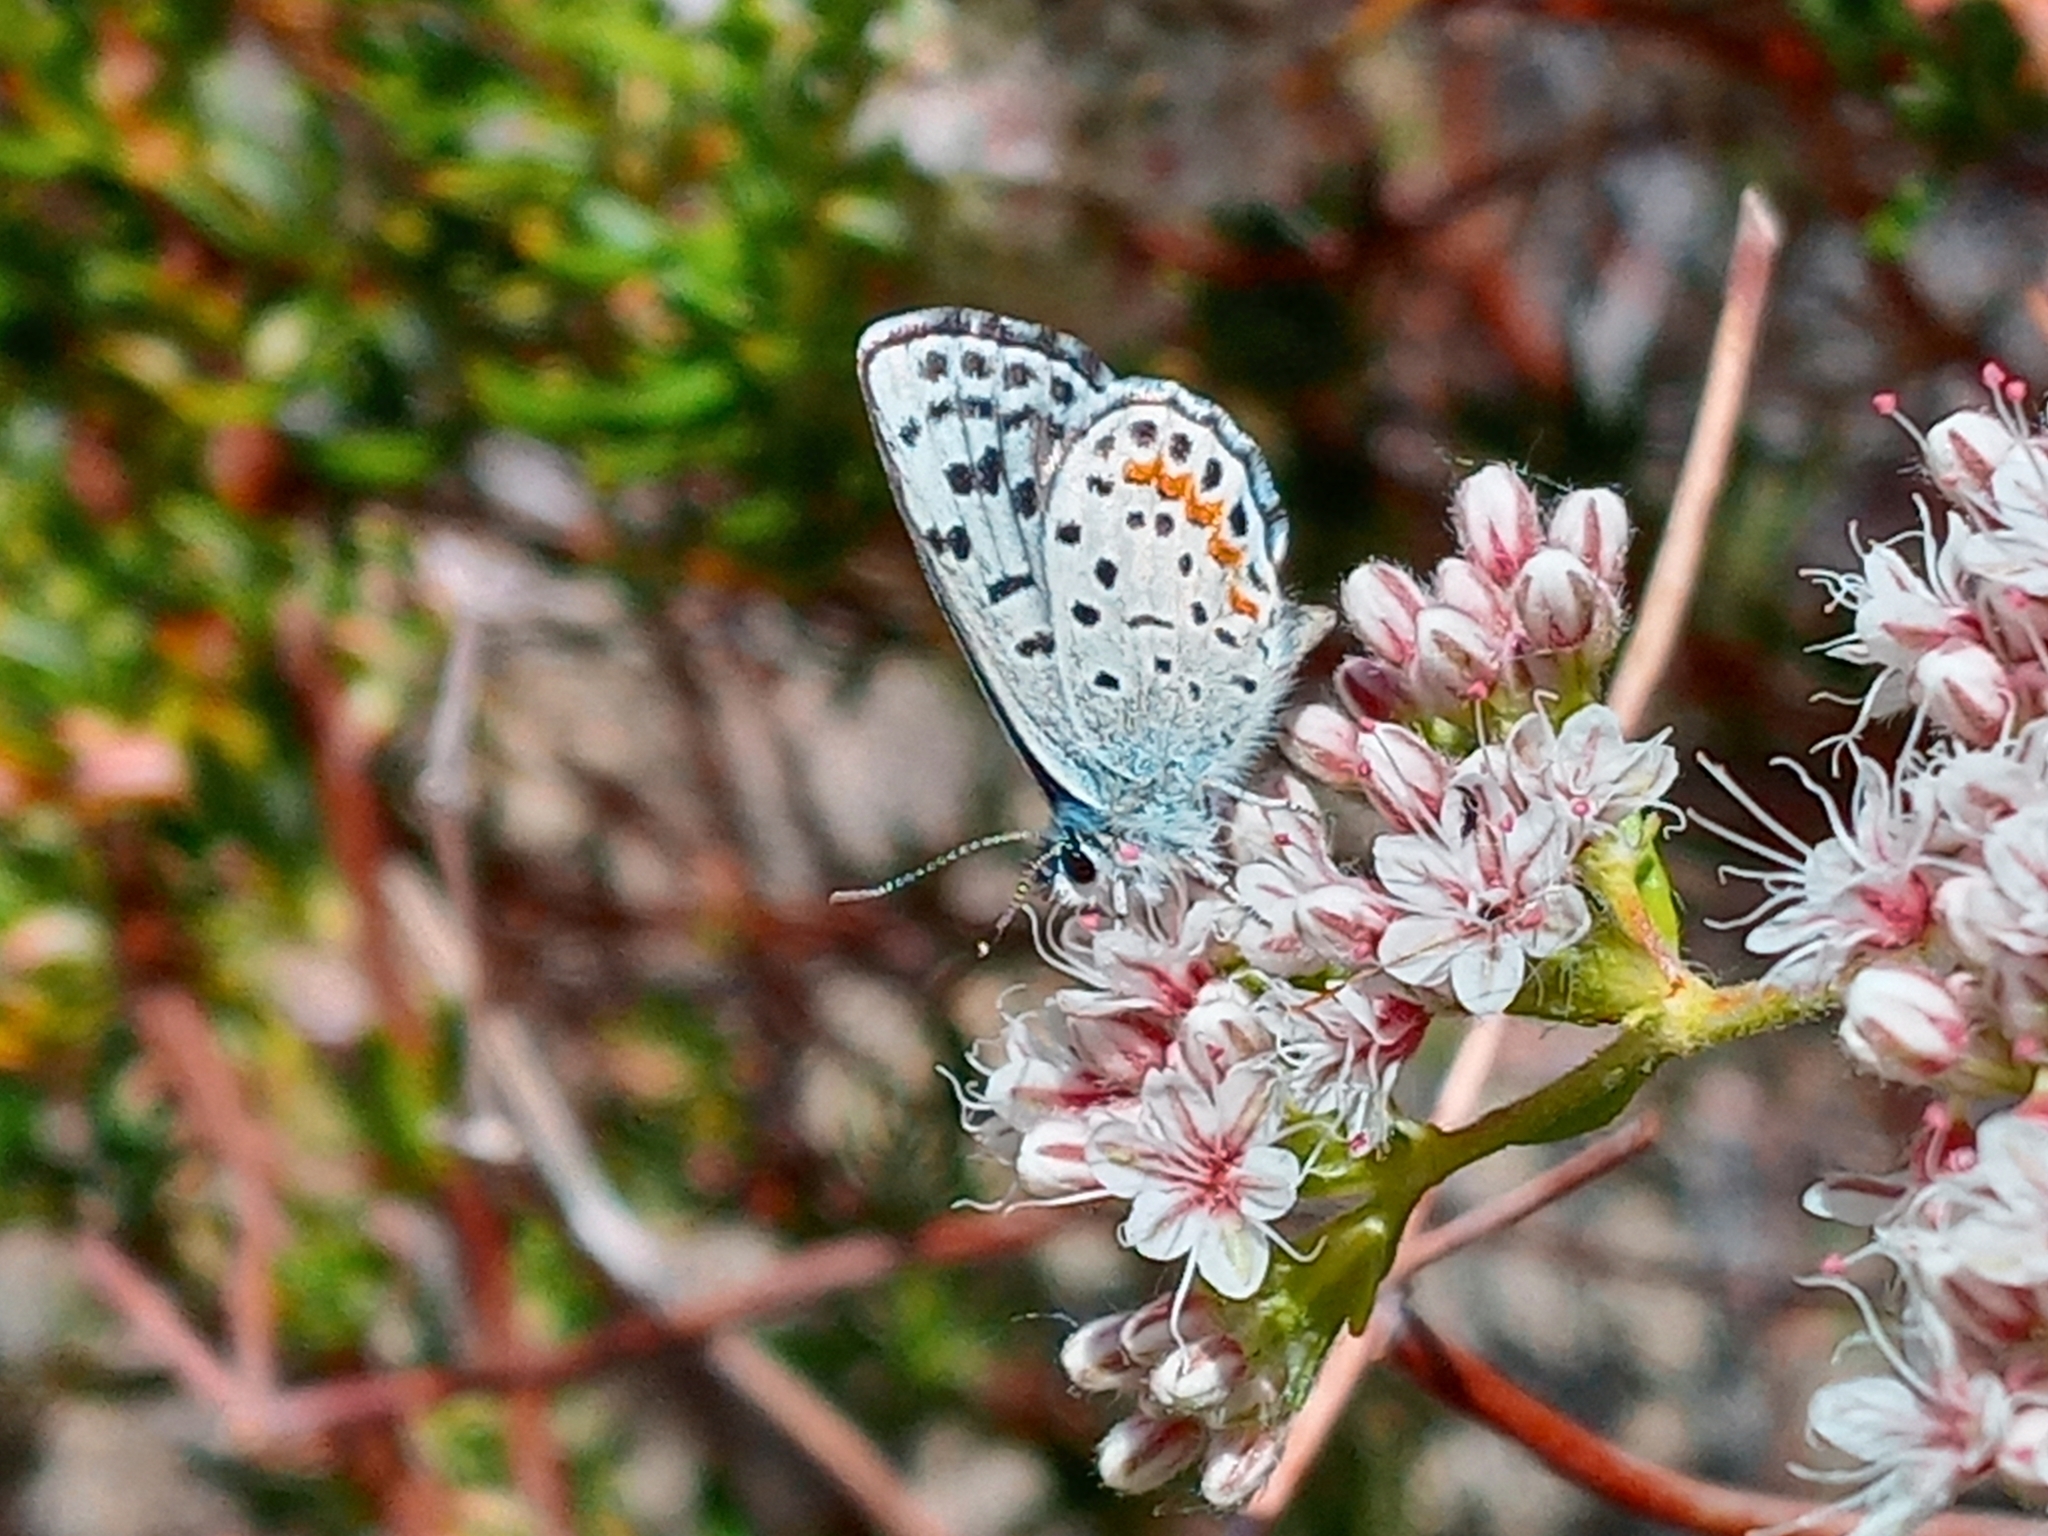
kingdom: Animalia
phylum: Arthropoda
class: Insecta
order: Lepidoptera
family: Lycaenidae
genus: Philotes
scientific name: Philotes bernardino
